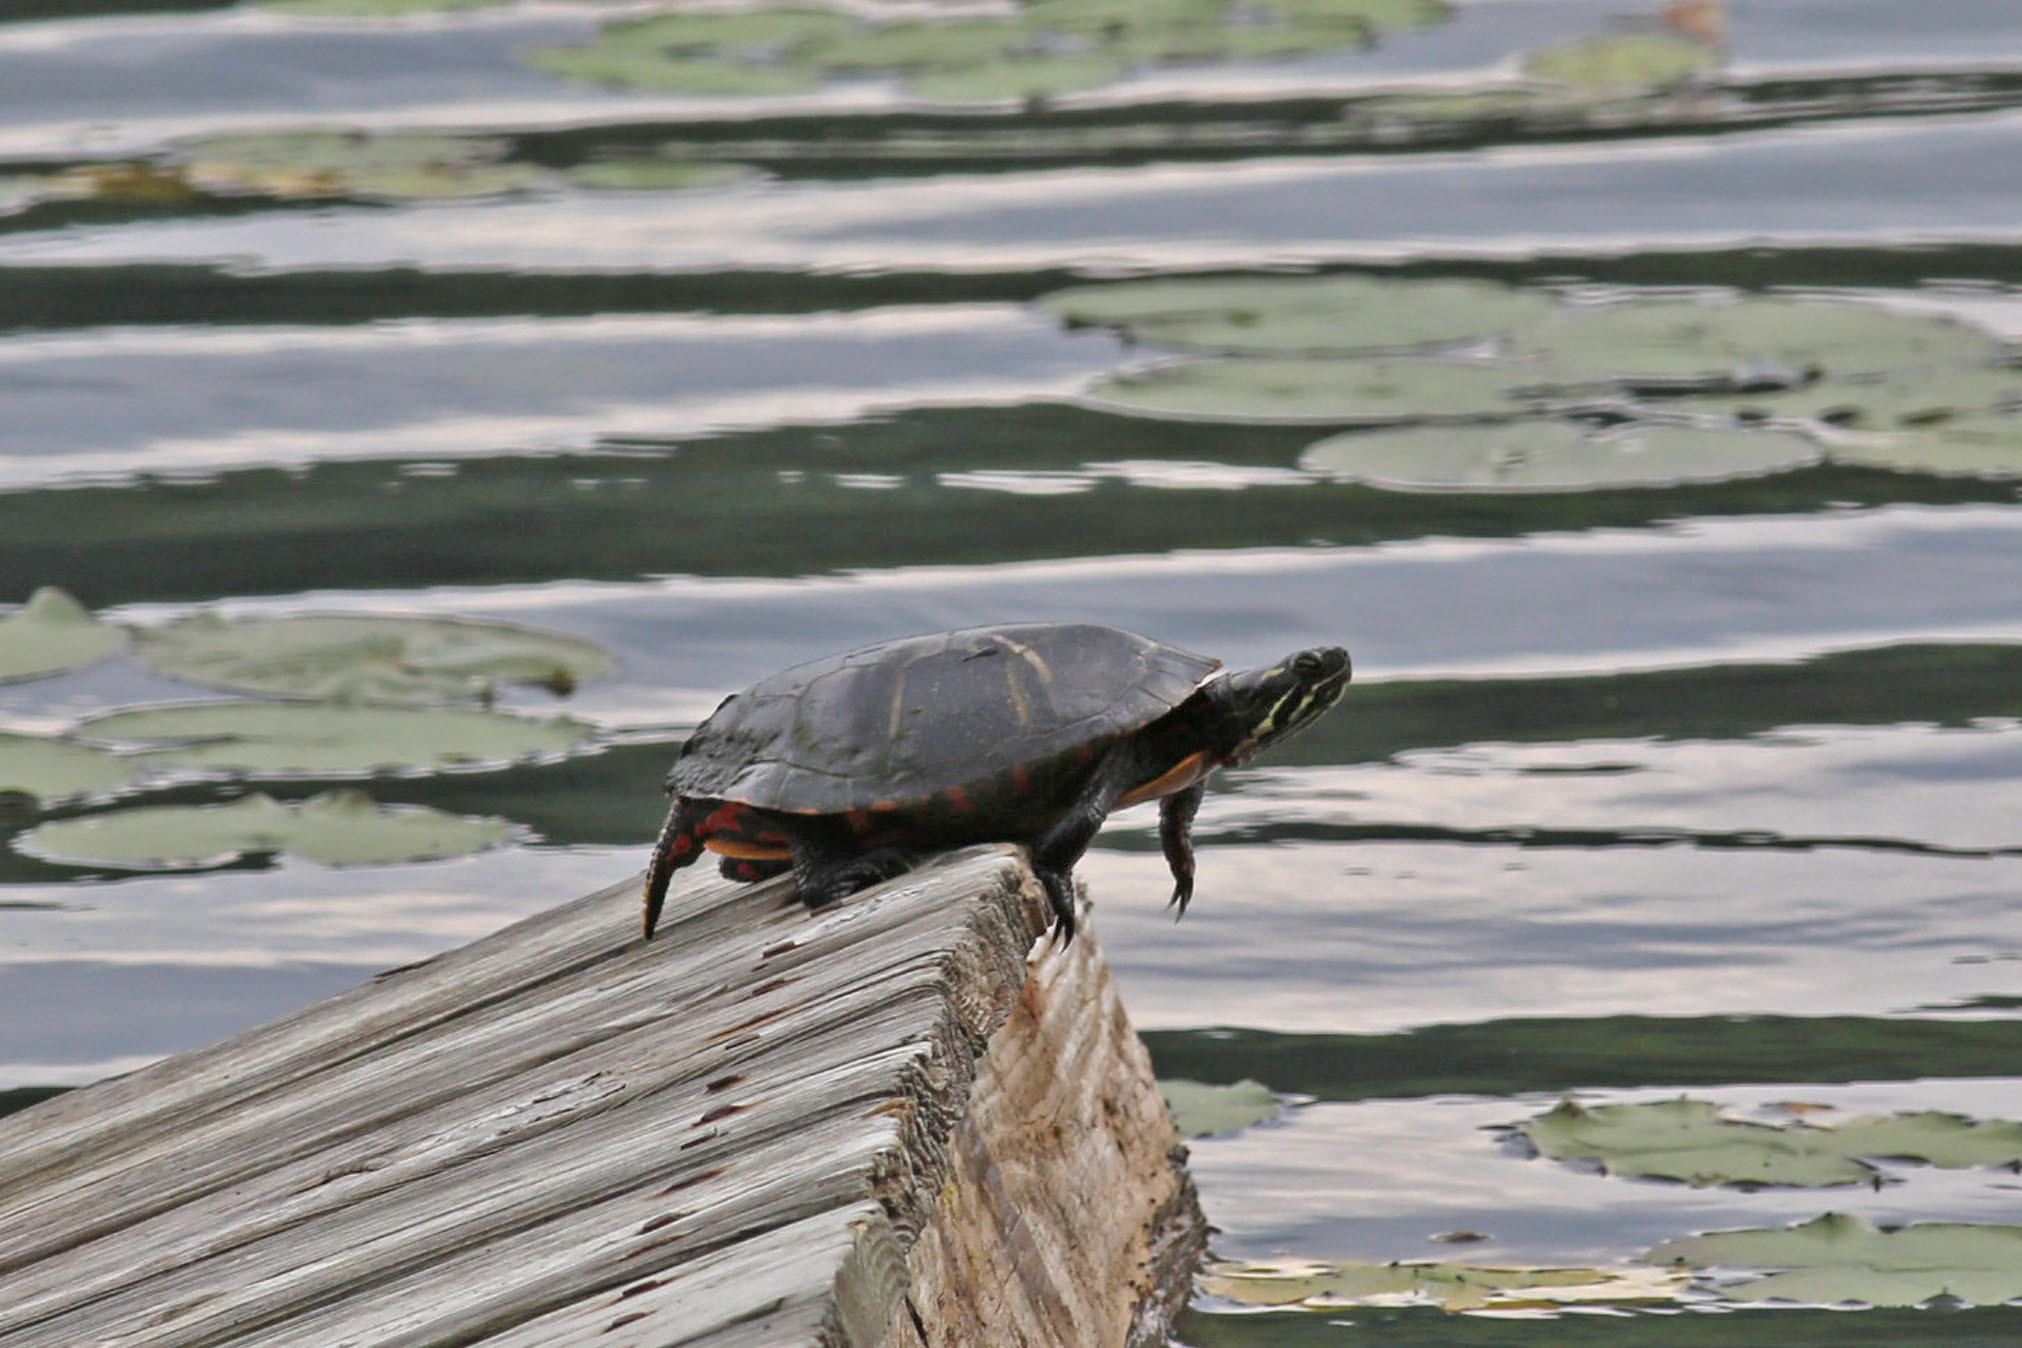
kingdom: Animalia
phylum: Chordata
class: Testudines
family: Emydidae
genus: Chrysemys
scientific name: Chrysemys picta
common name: Painted turtle
